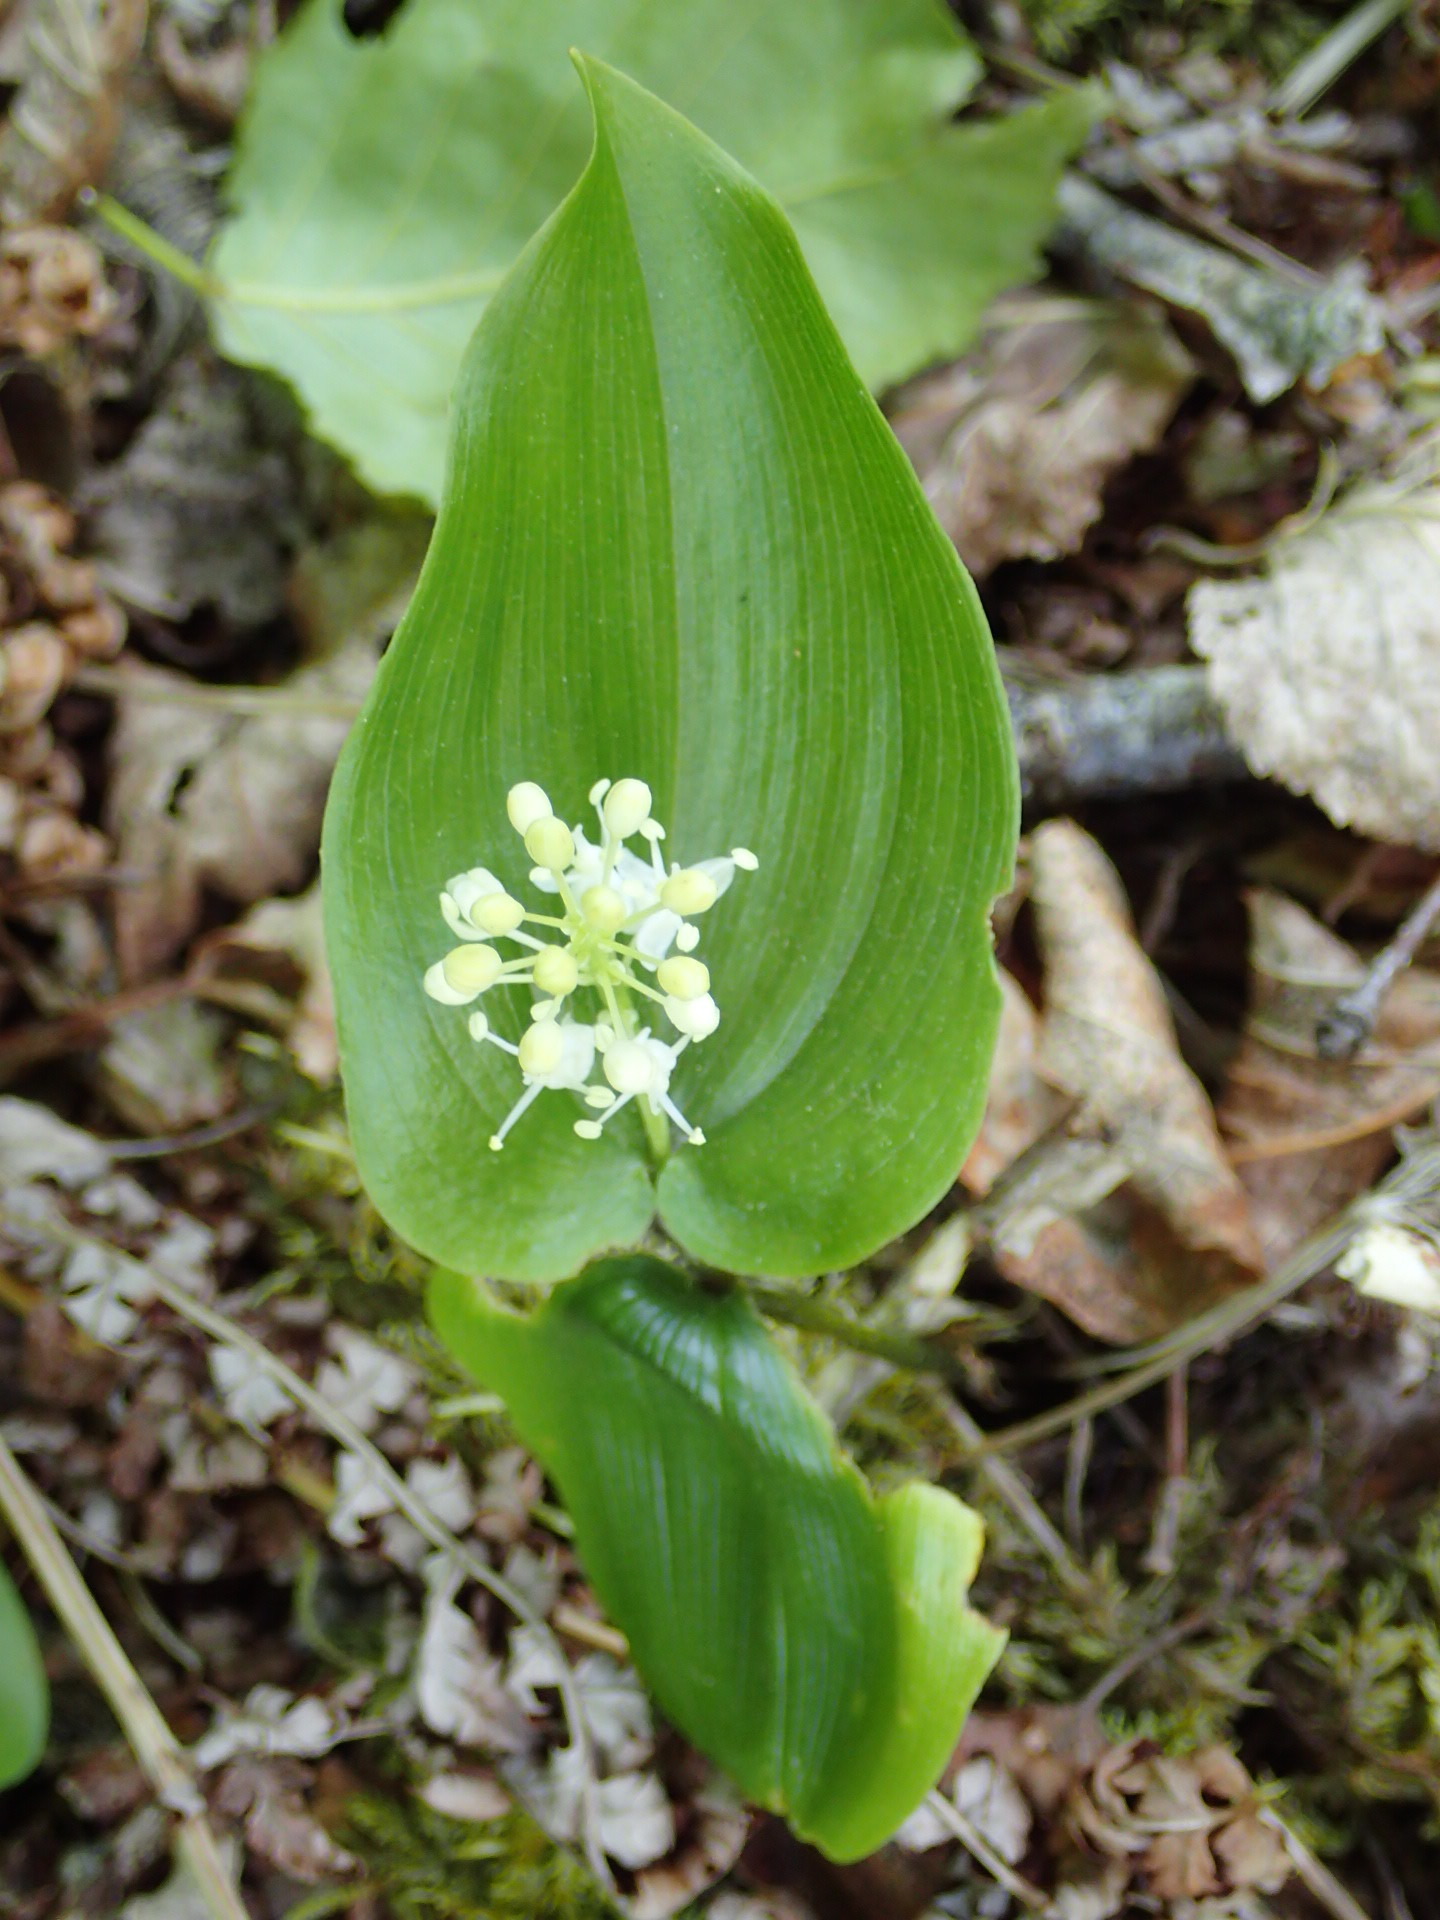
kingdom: Plantae
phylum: Tracheophyta
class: Liliopsida
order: Asparagales
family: Asparagaceae
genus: Maianthemum
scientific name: Maianthemum canadense
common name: False lily-of-the-valley
